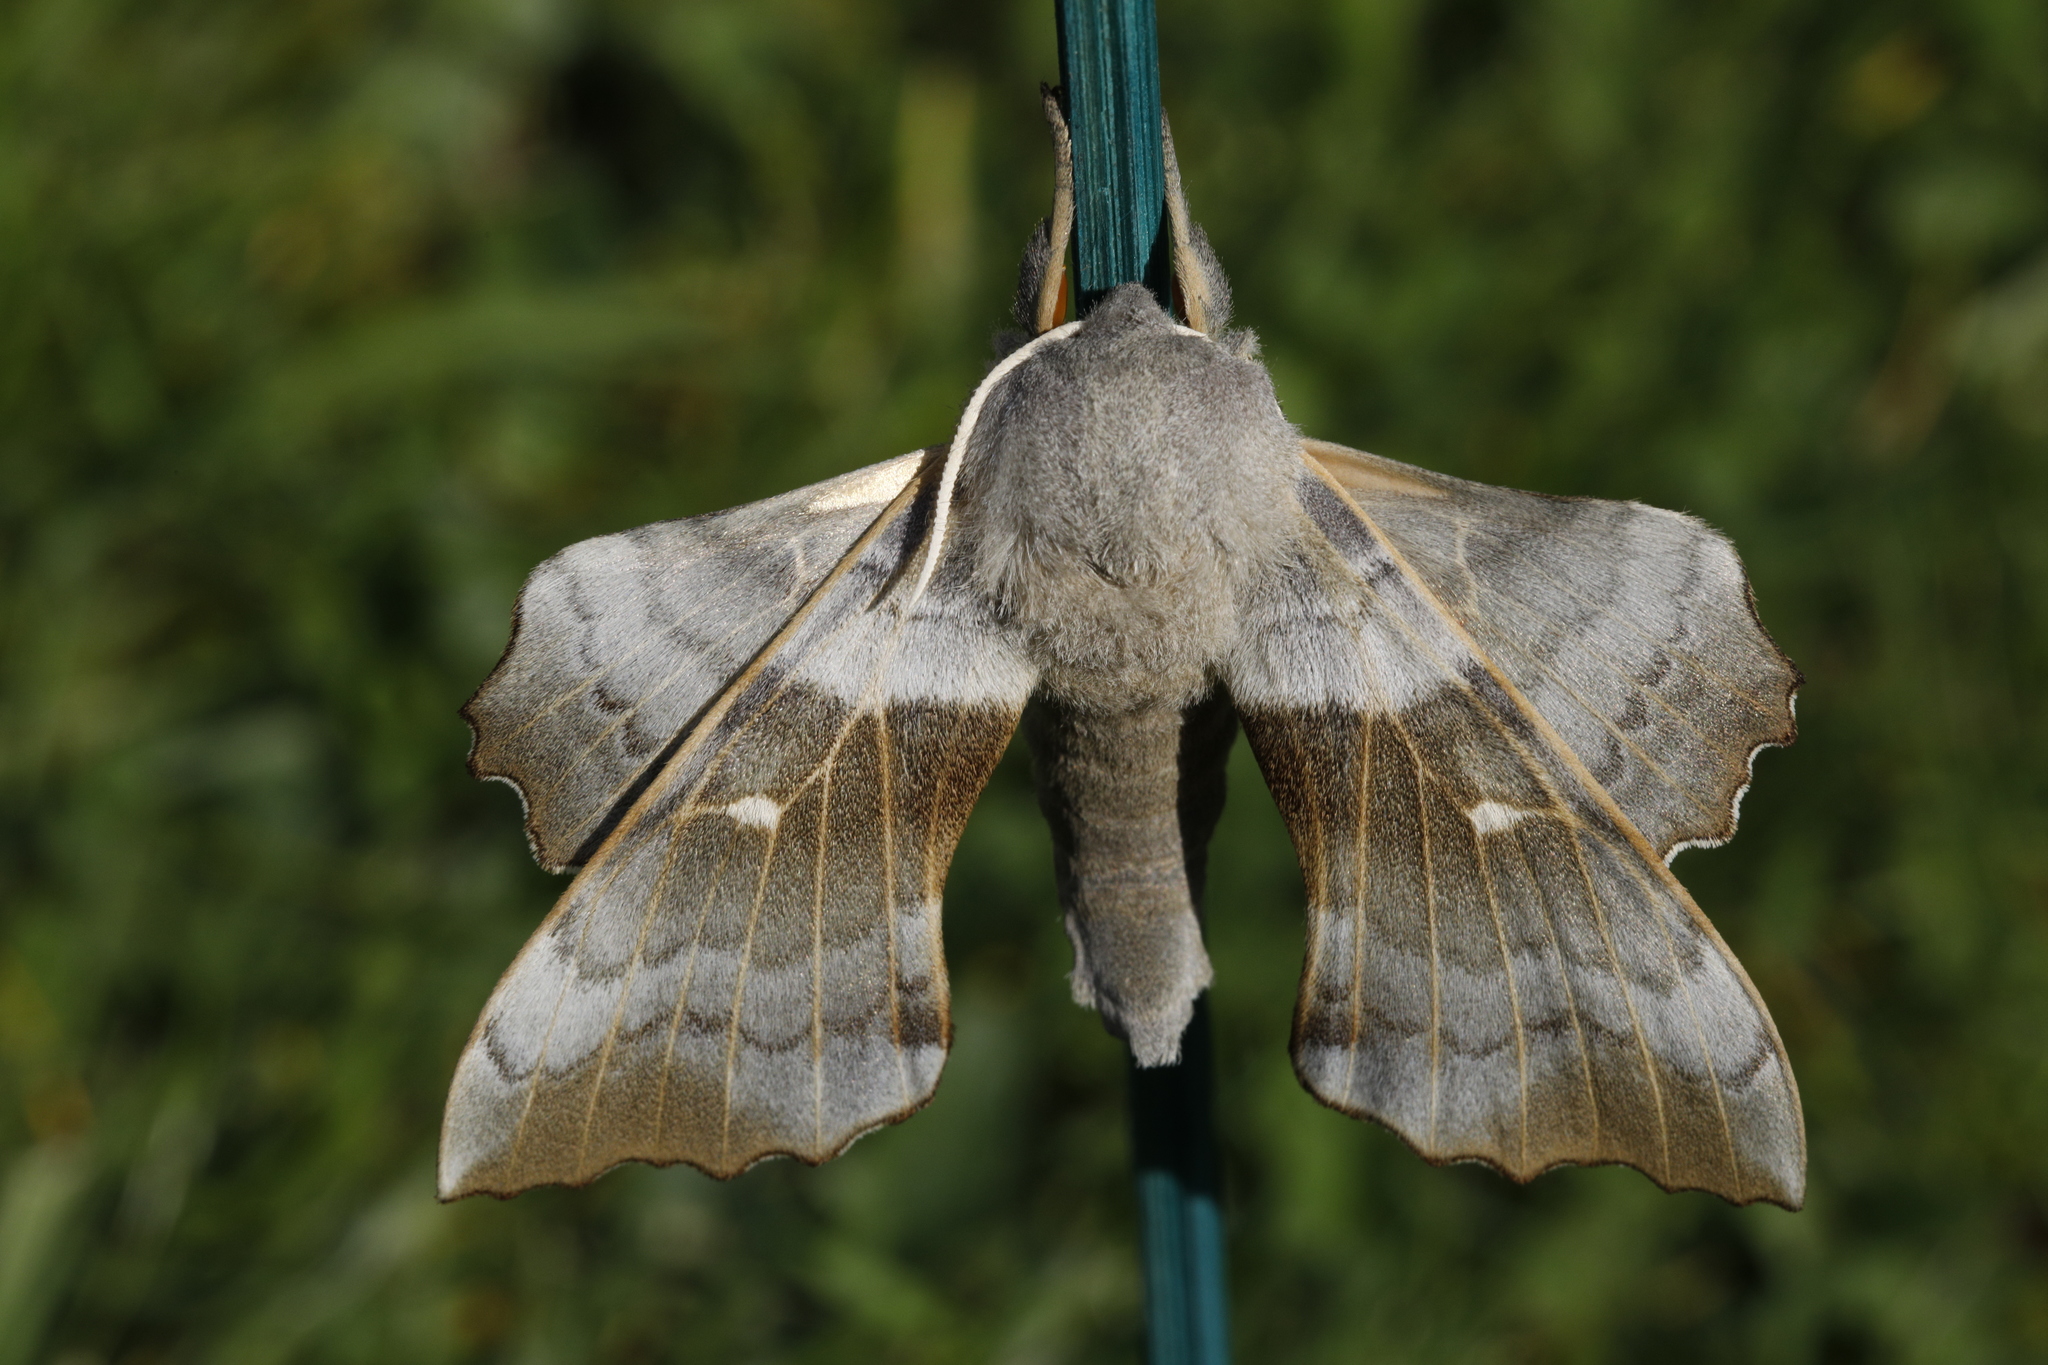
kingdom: Animalia
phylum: Arthropoda
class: Insecta
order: Lepidoptera
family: Sphingidae
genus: Laothoe
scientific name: Laothoe populi
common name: Poplar hawk-moth
